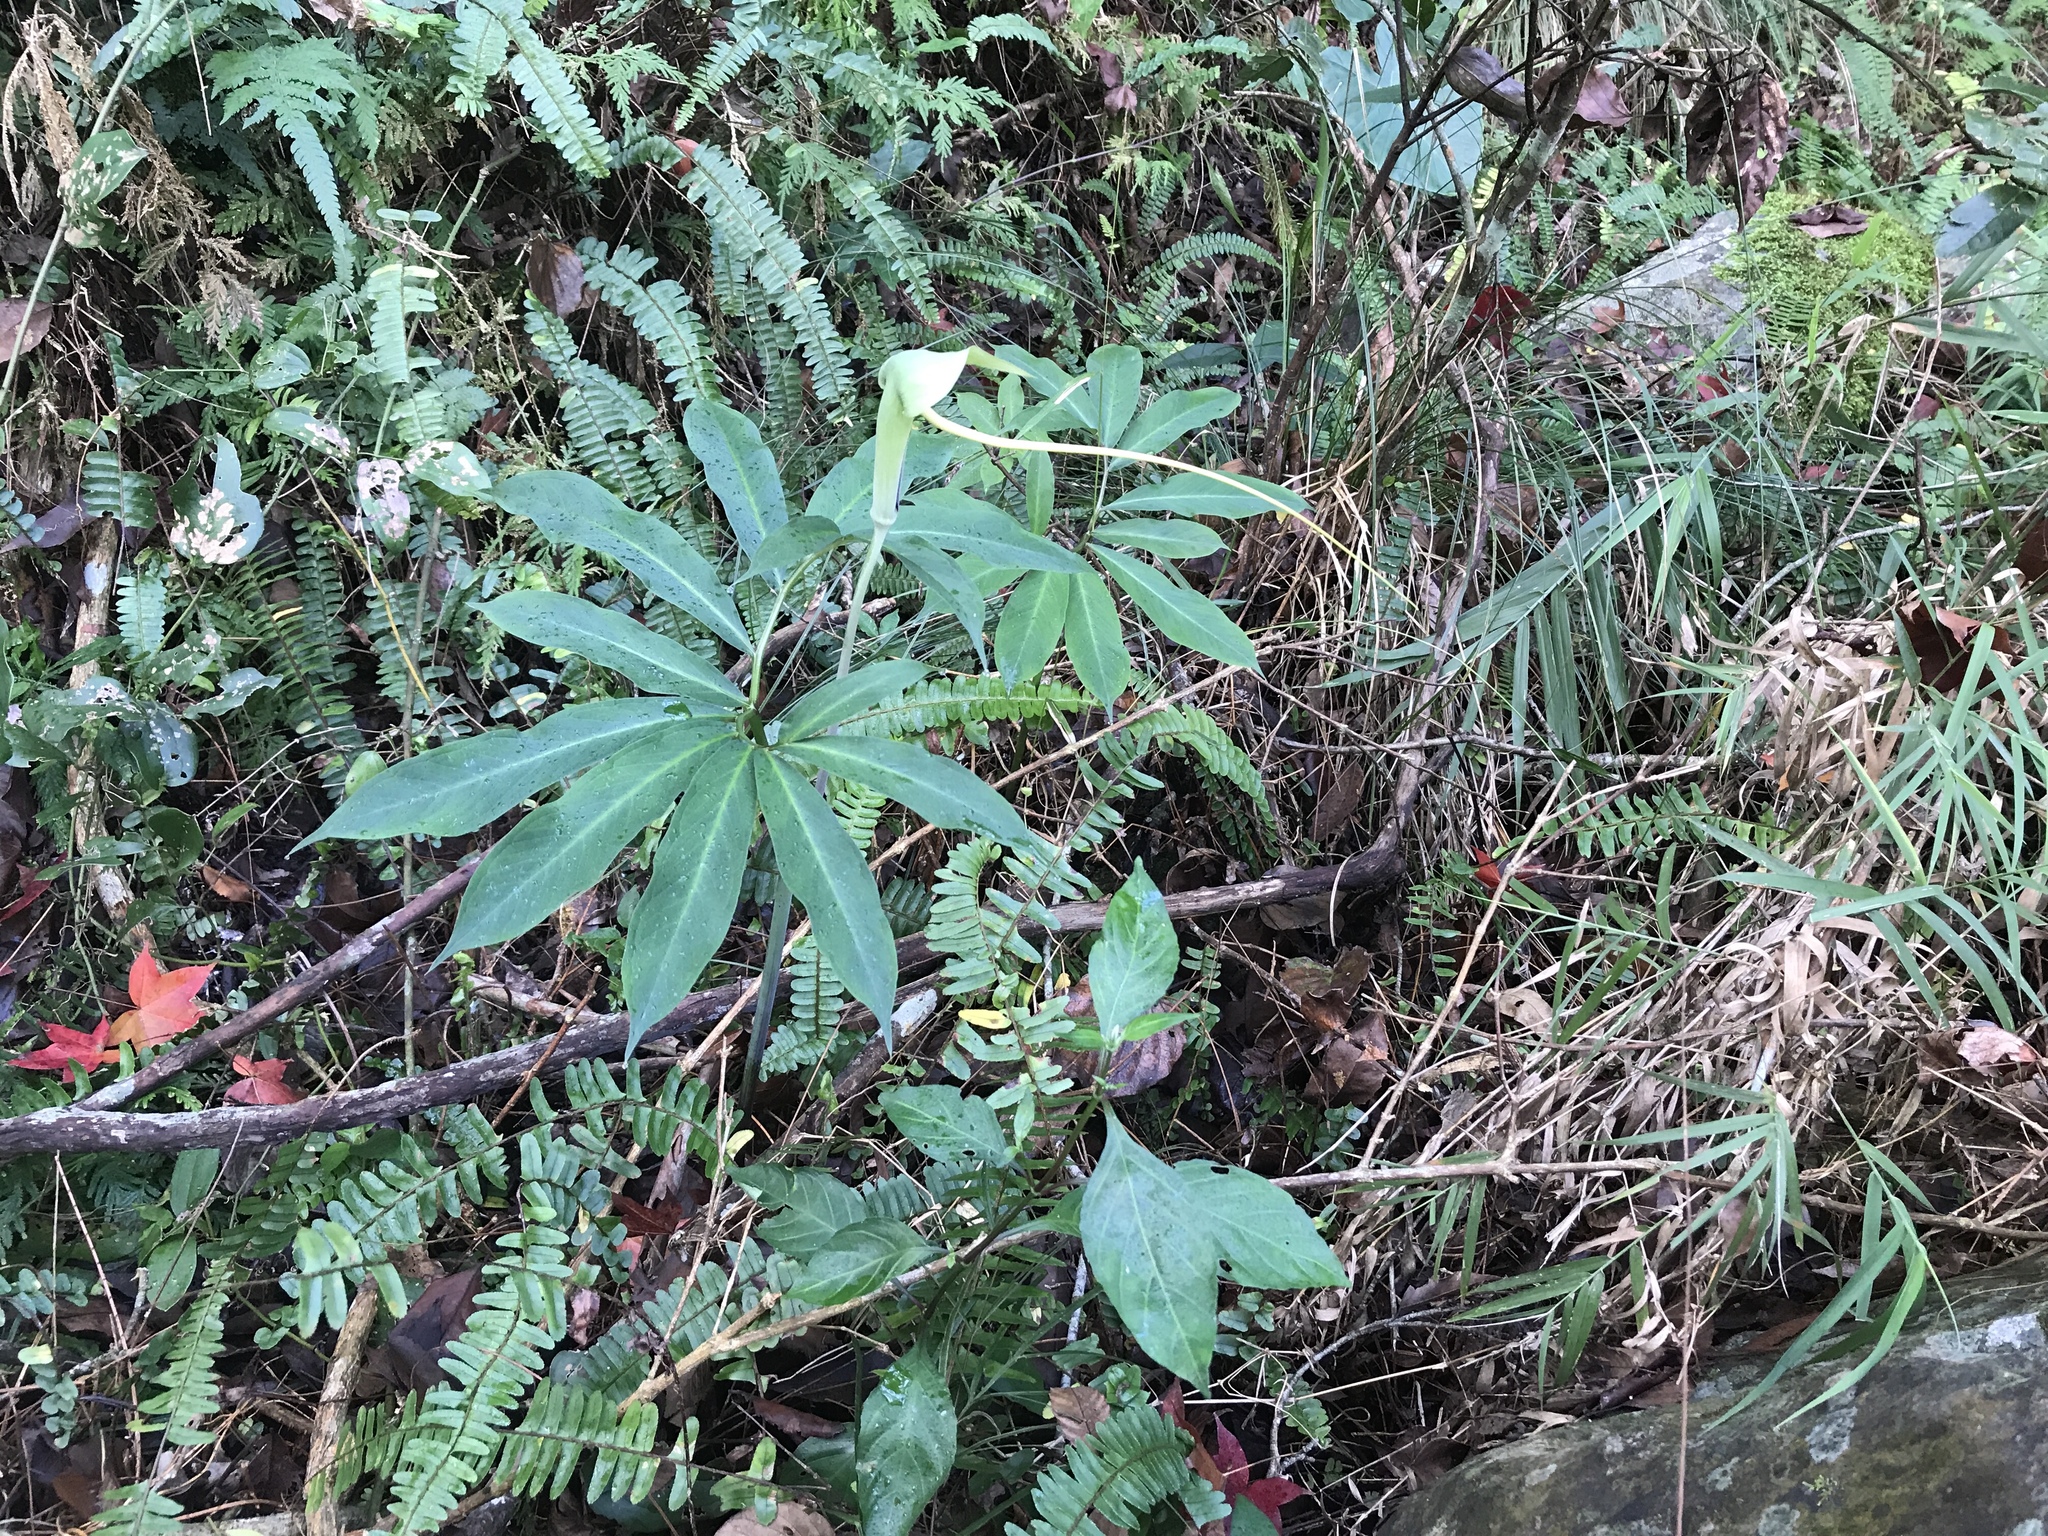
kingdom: Plantae
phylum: Tracheophyta
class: Liliopsida
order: Alismatales
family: Araceae
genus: Arisaema
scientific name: Arisaema heterophyllum
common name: Dancing crane cobra lily
